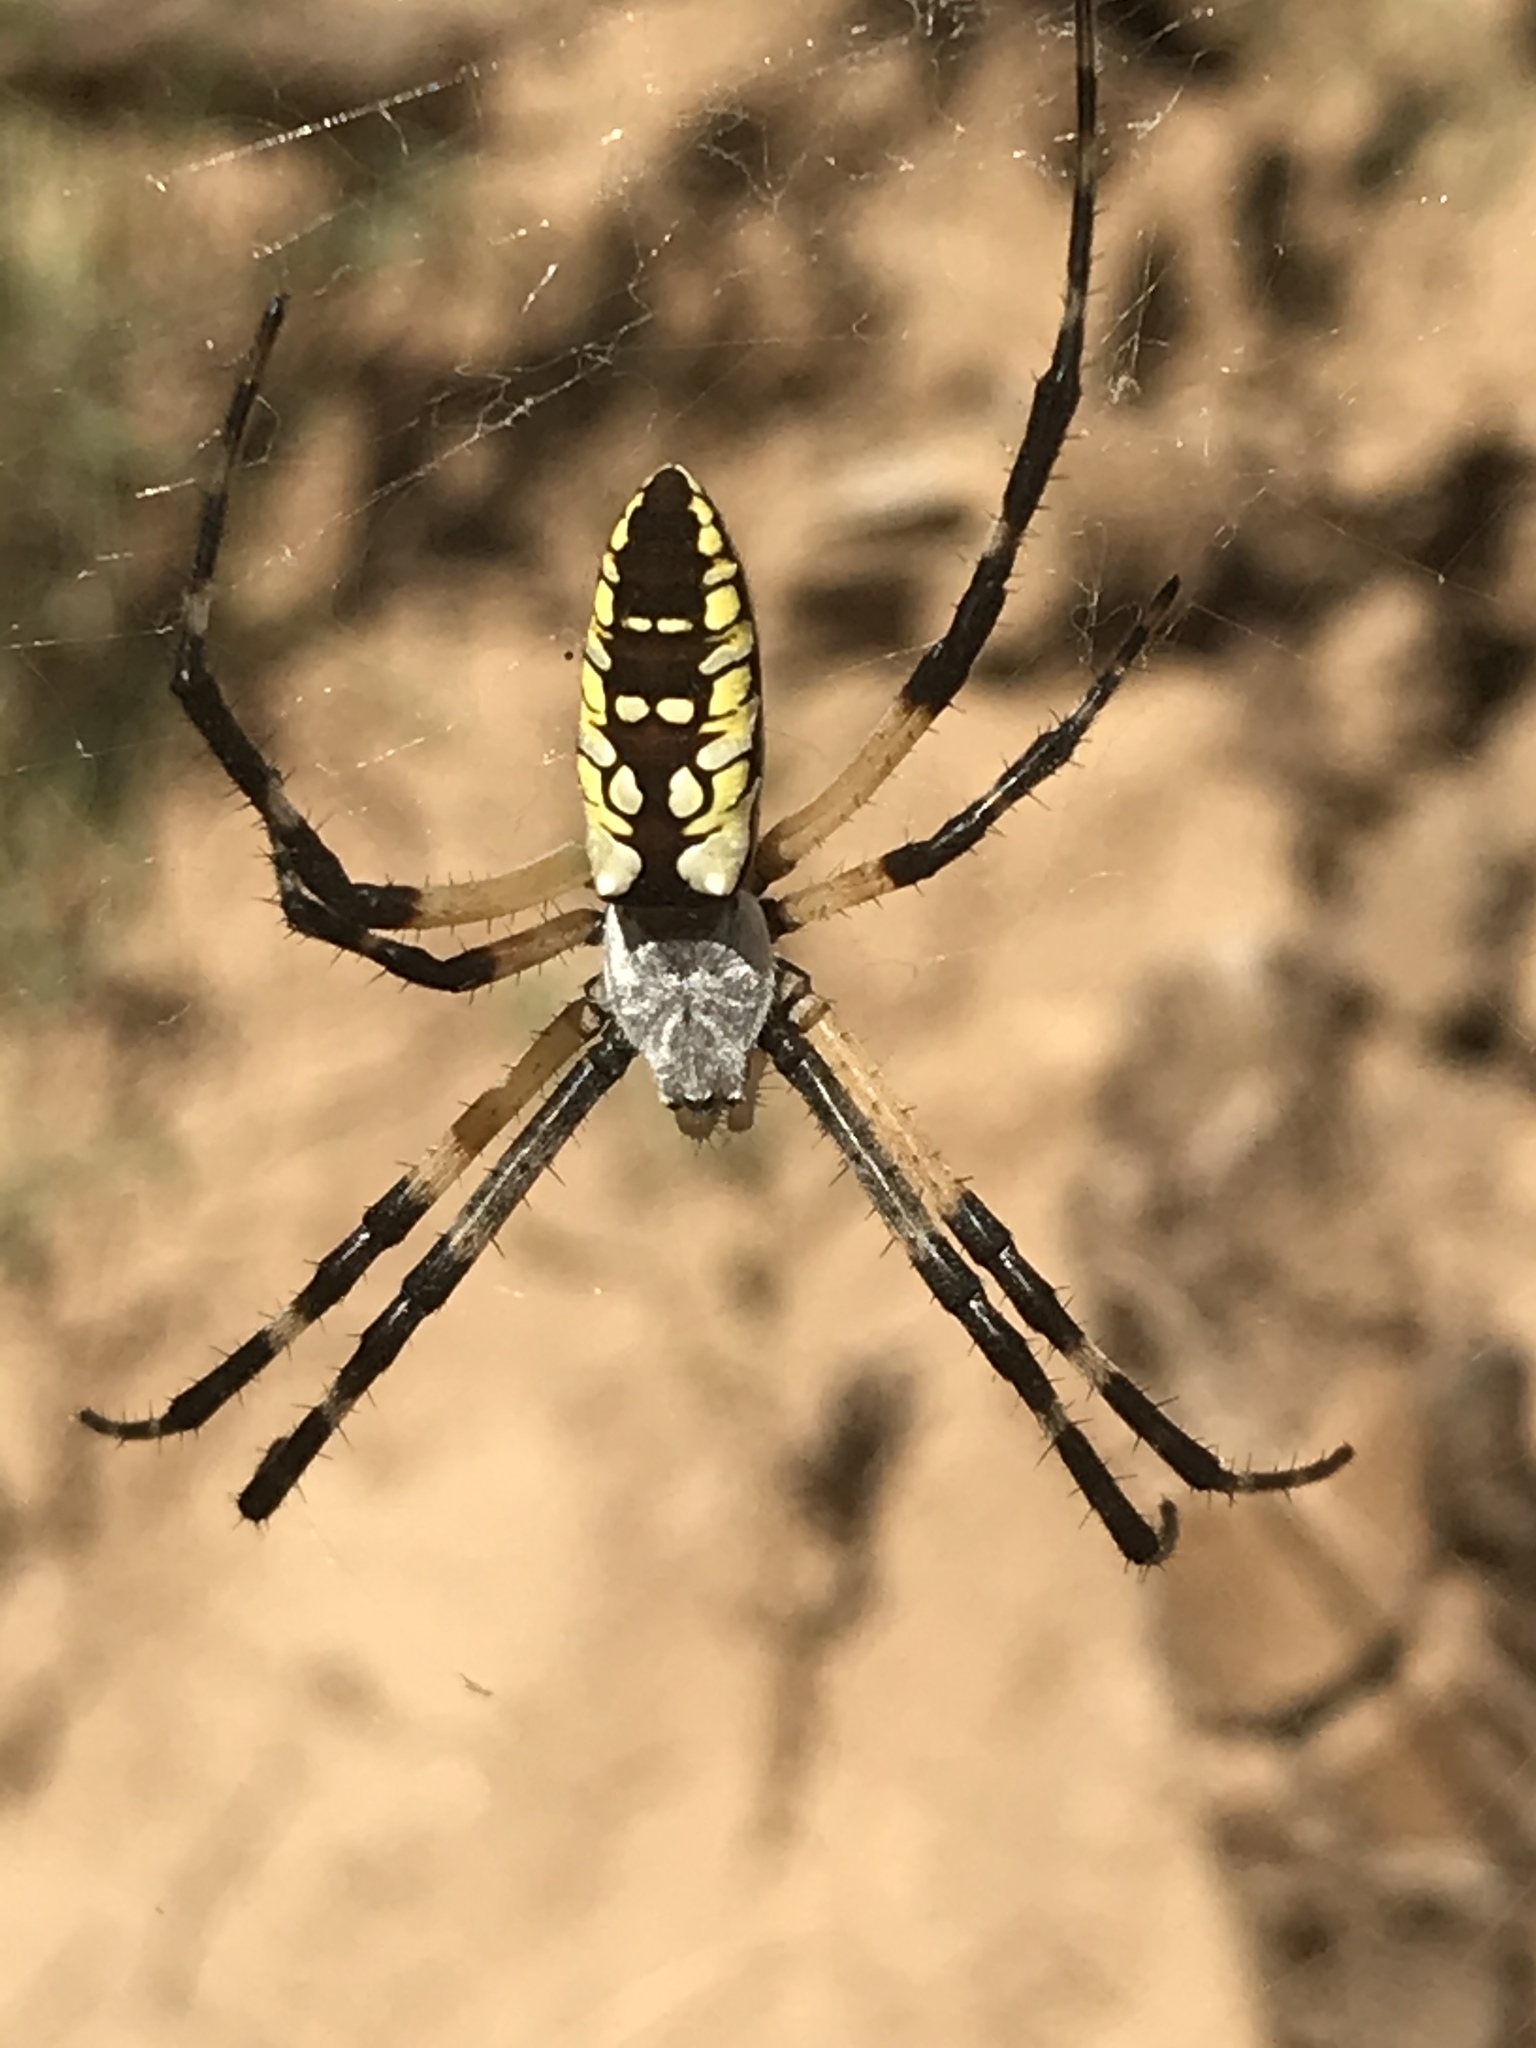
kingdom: Animalia
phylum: Arthropoda
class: Arachnida
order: Araneae
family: Araneidae
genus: Argiope
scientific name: Argiope aurantia
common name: Orb weavers
